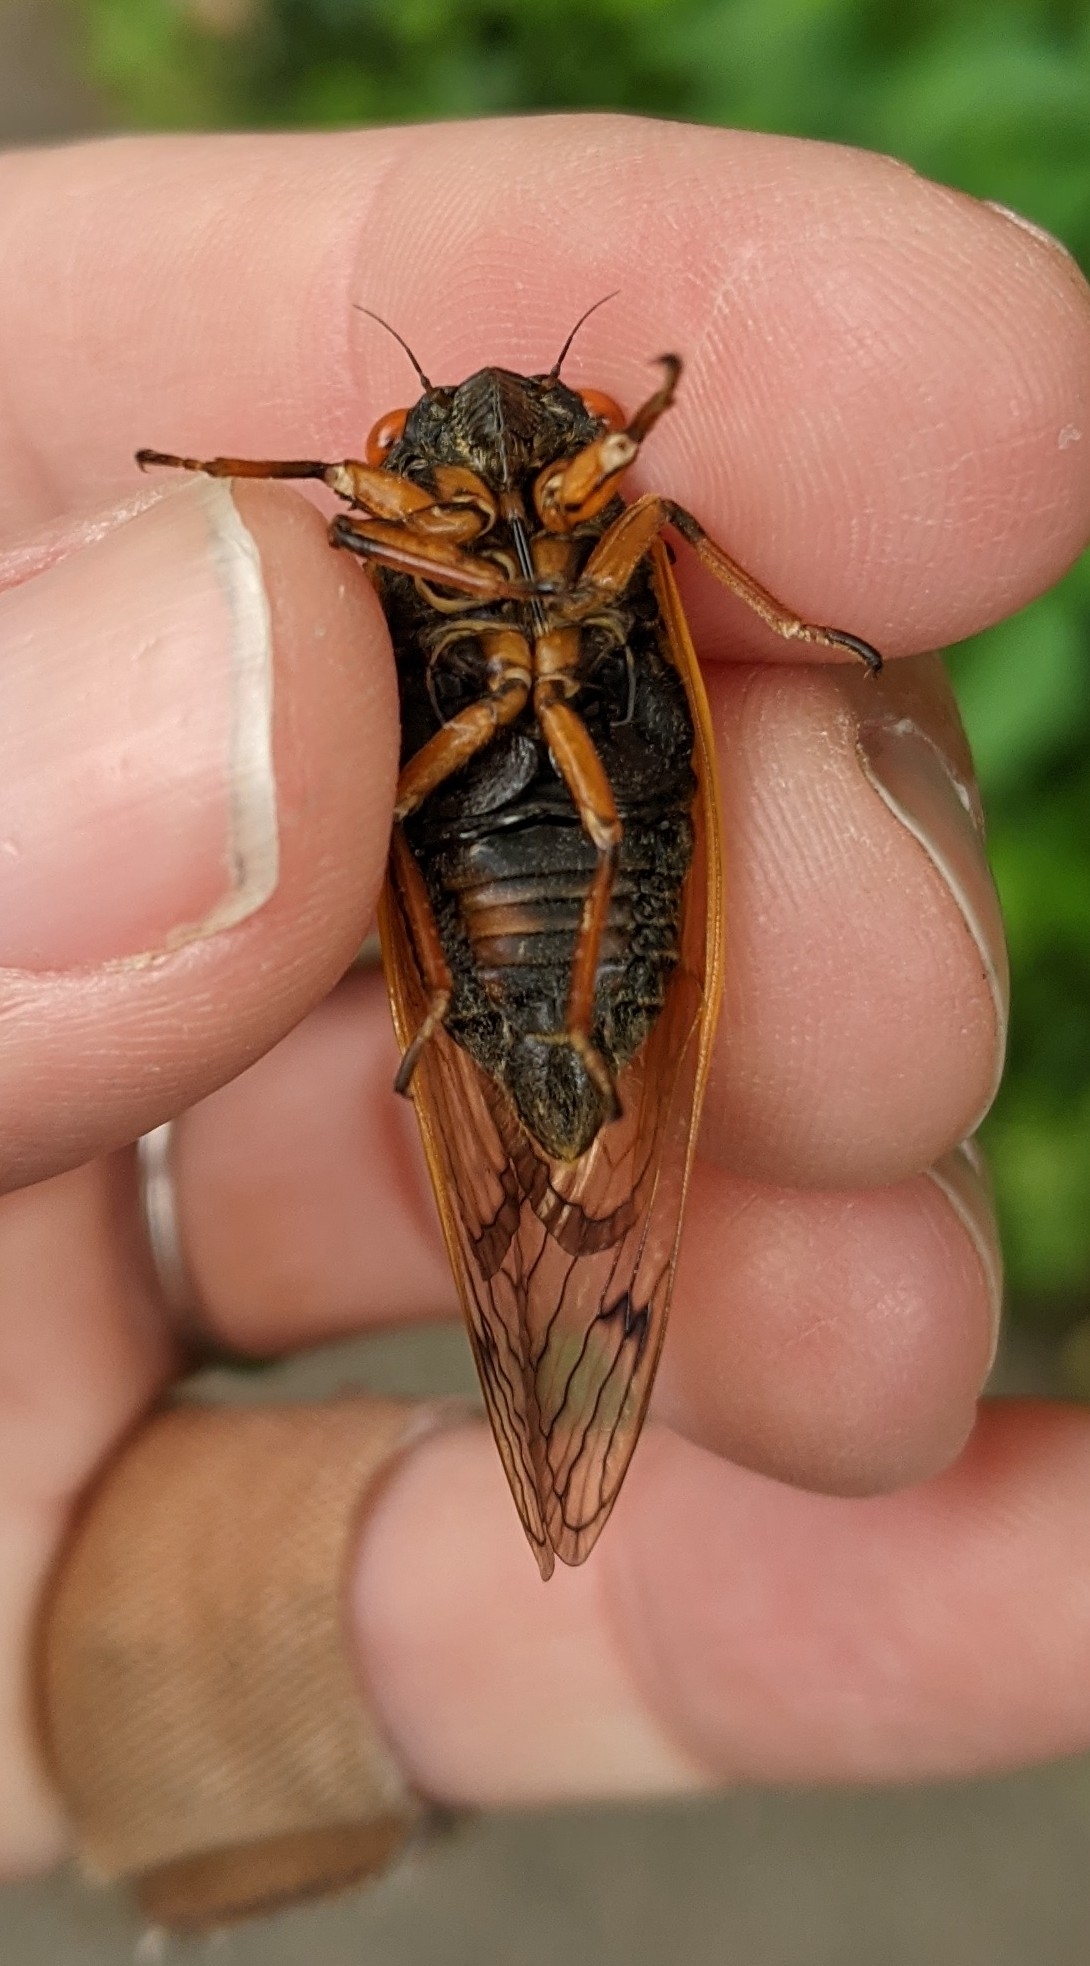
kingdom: Animalia
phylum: Arthropoda
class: Insecta
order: Hemiptera
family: Cicadidae
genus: Magicicada
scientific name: Magicicada cassini
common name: Cassin's 17-year cicada
